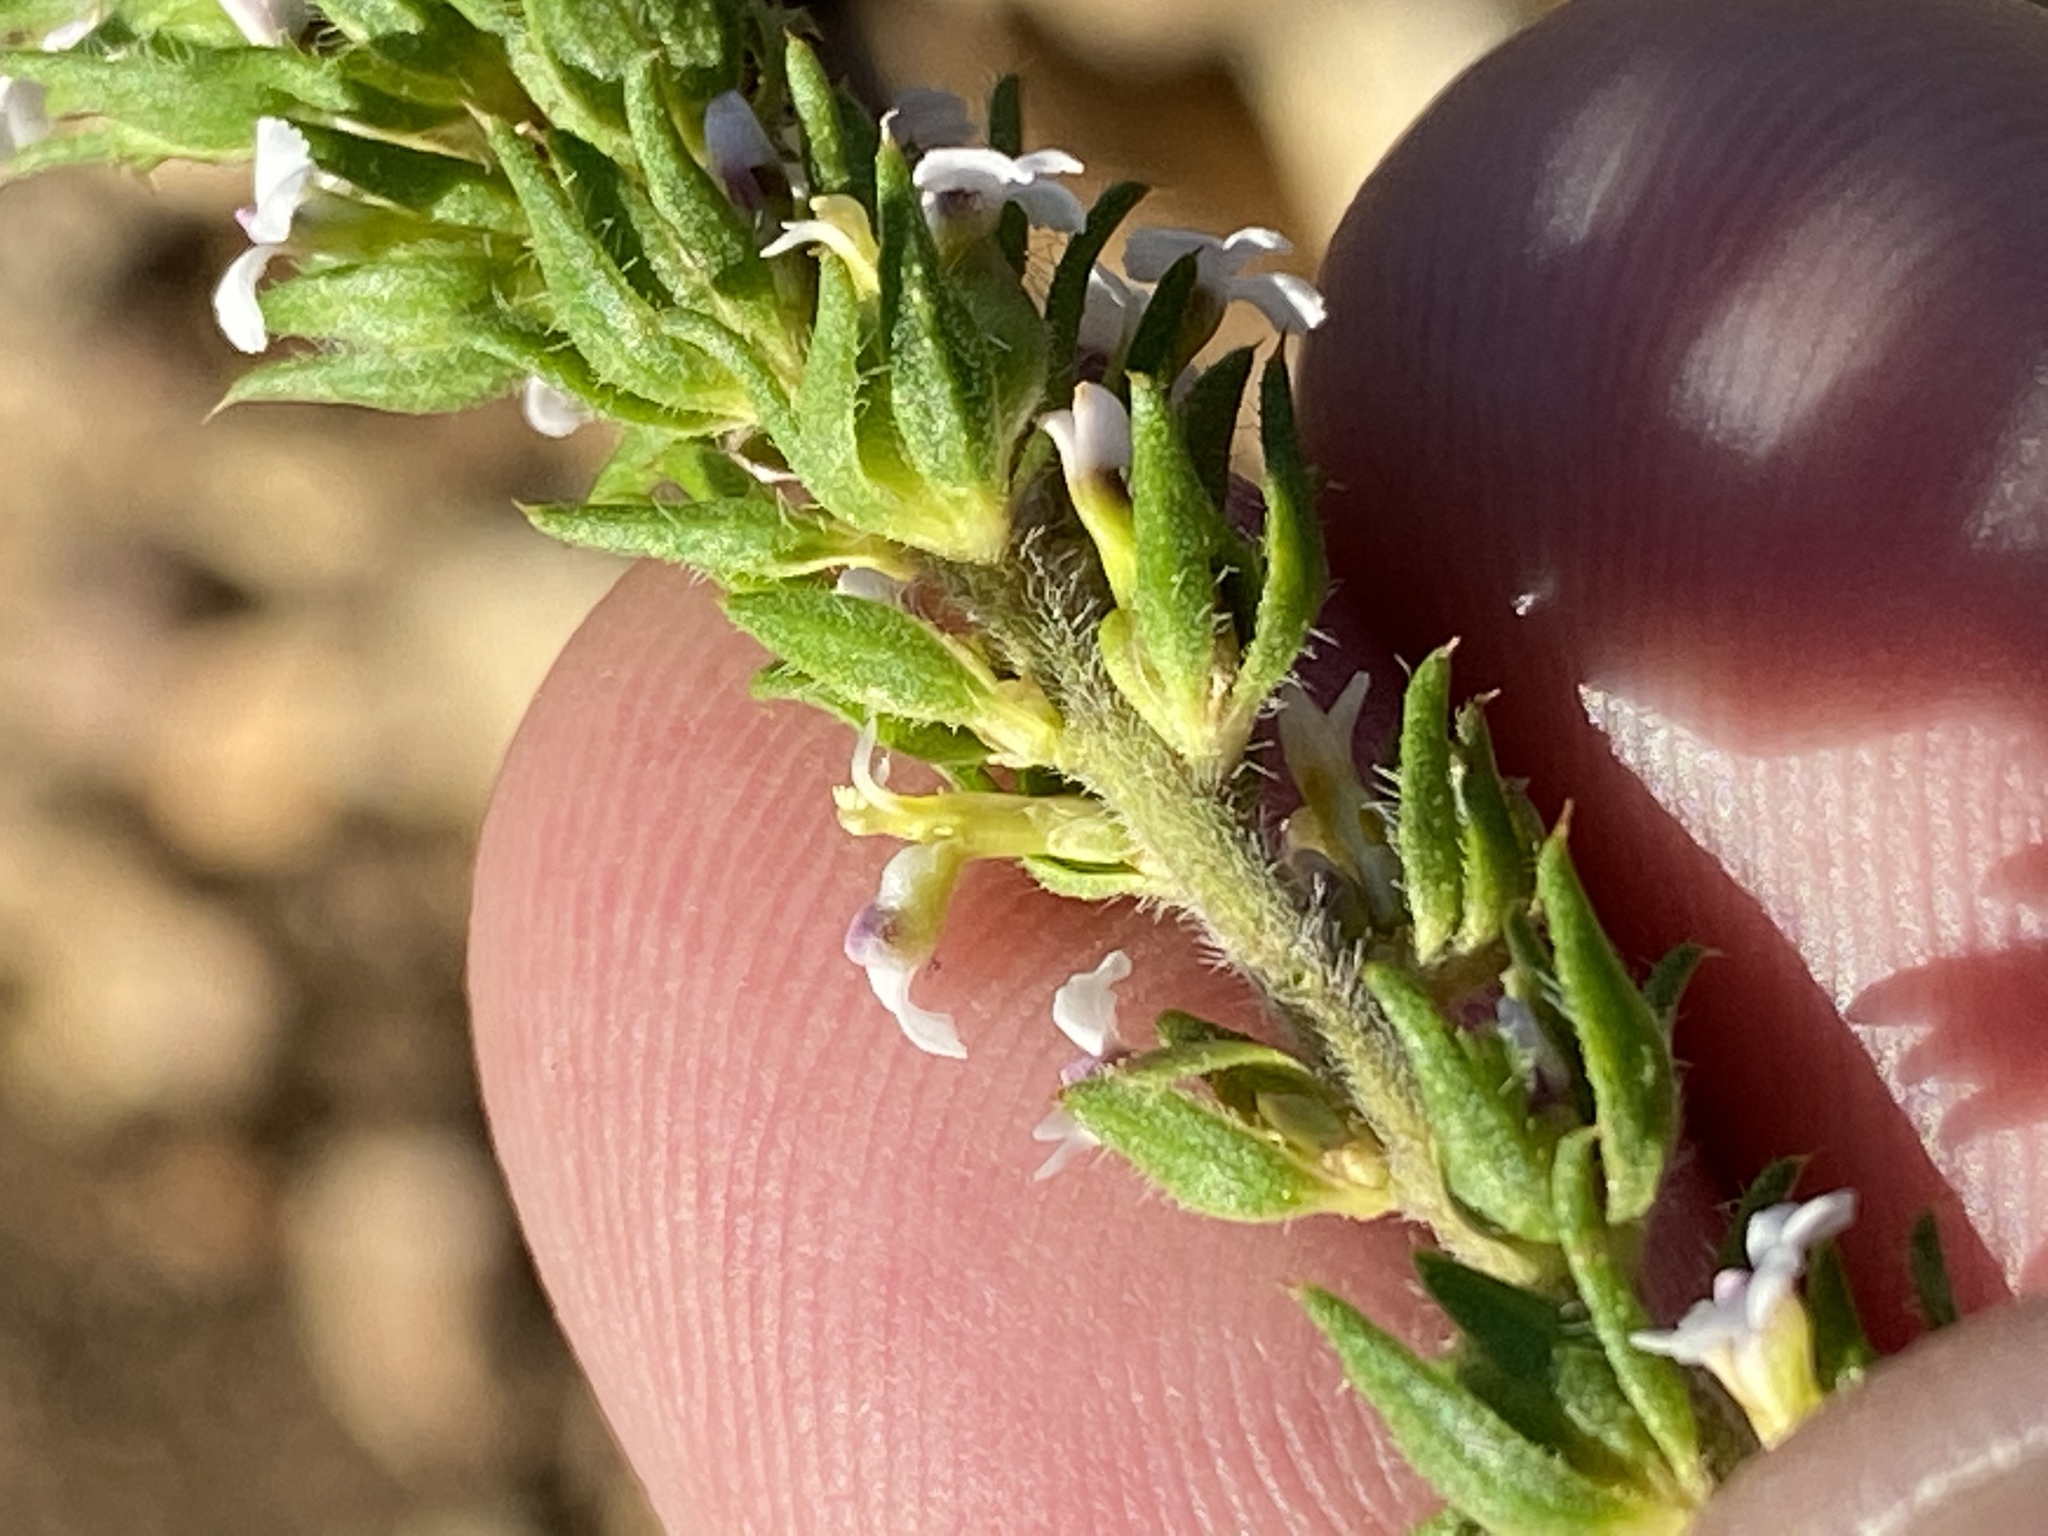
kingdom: Plantae
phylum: Tracheophyta
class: Magnoliopsida
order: Fabales
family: Polygalaceae
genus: Muraltia
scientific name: Muraltia alopecuroides
